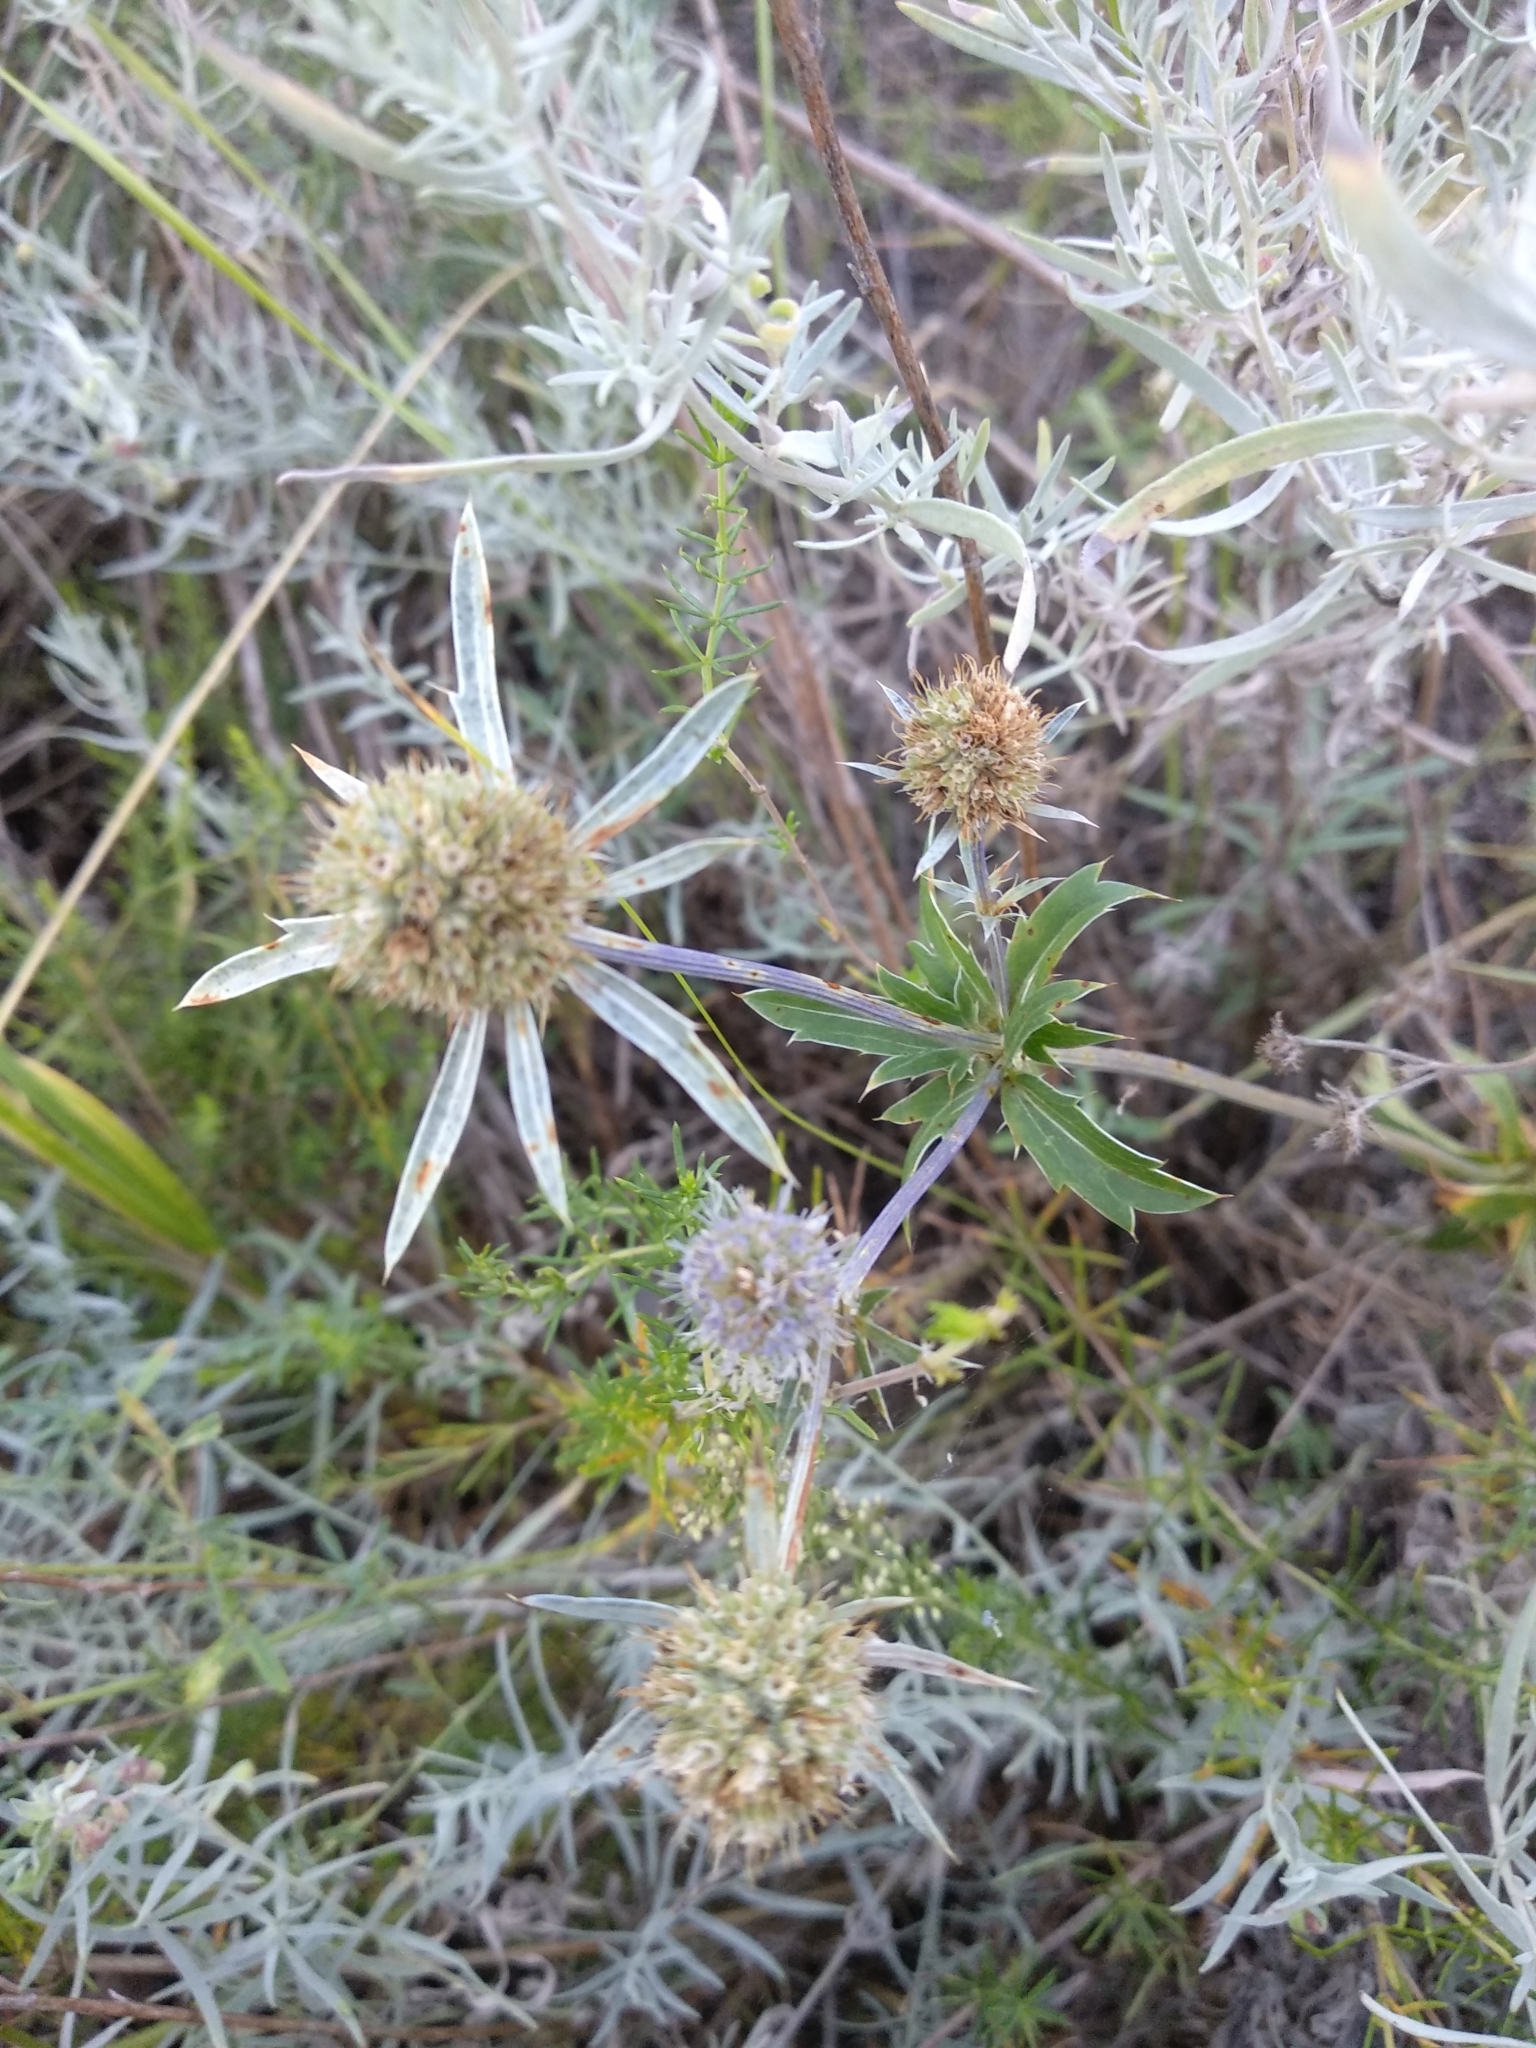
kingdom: Plantae
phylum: Tracheophyta
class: Magnoliopsida
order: Apiales
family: Apiaceae
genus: Eryngium
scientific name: Eryngium planum
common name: Blue eryngo
